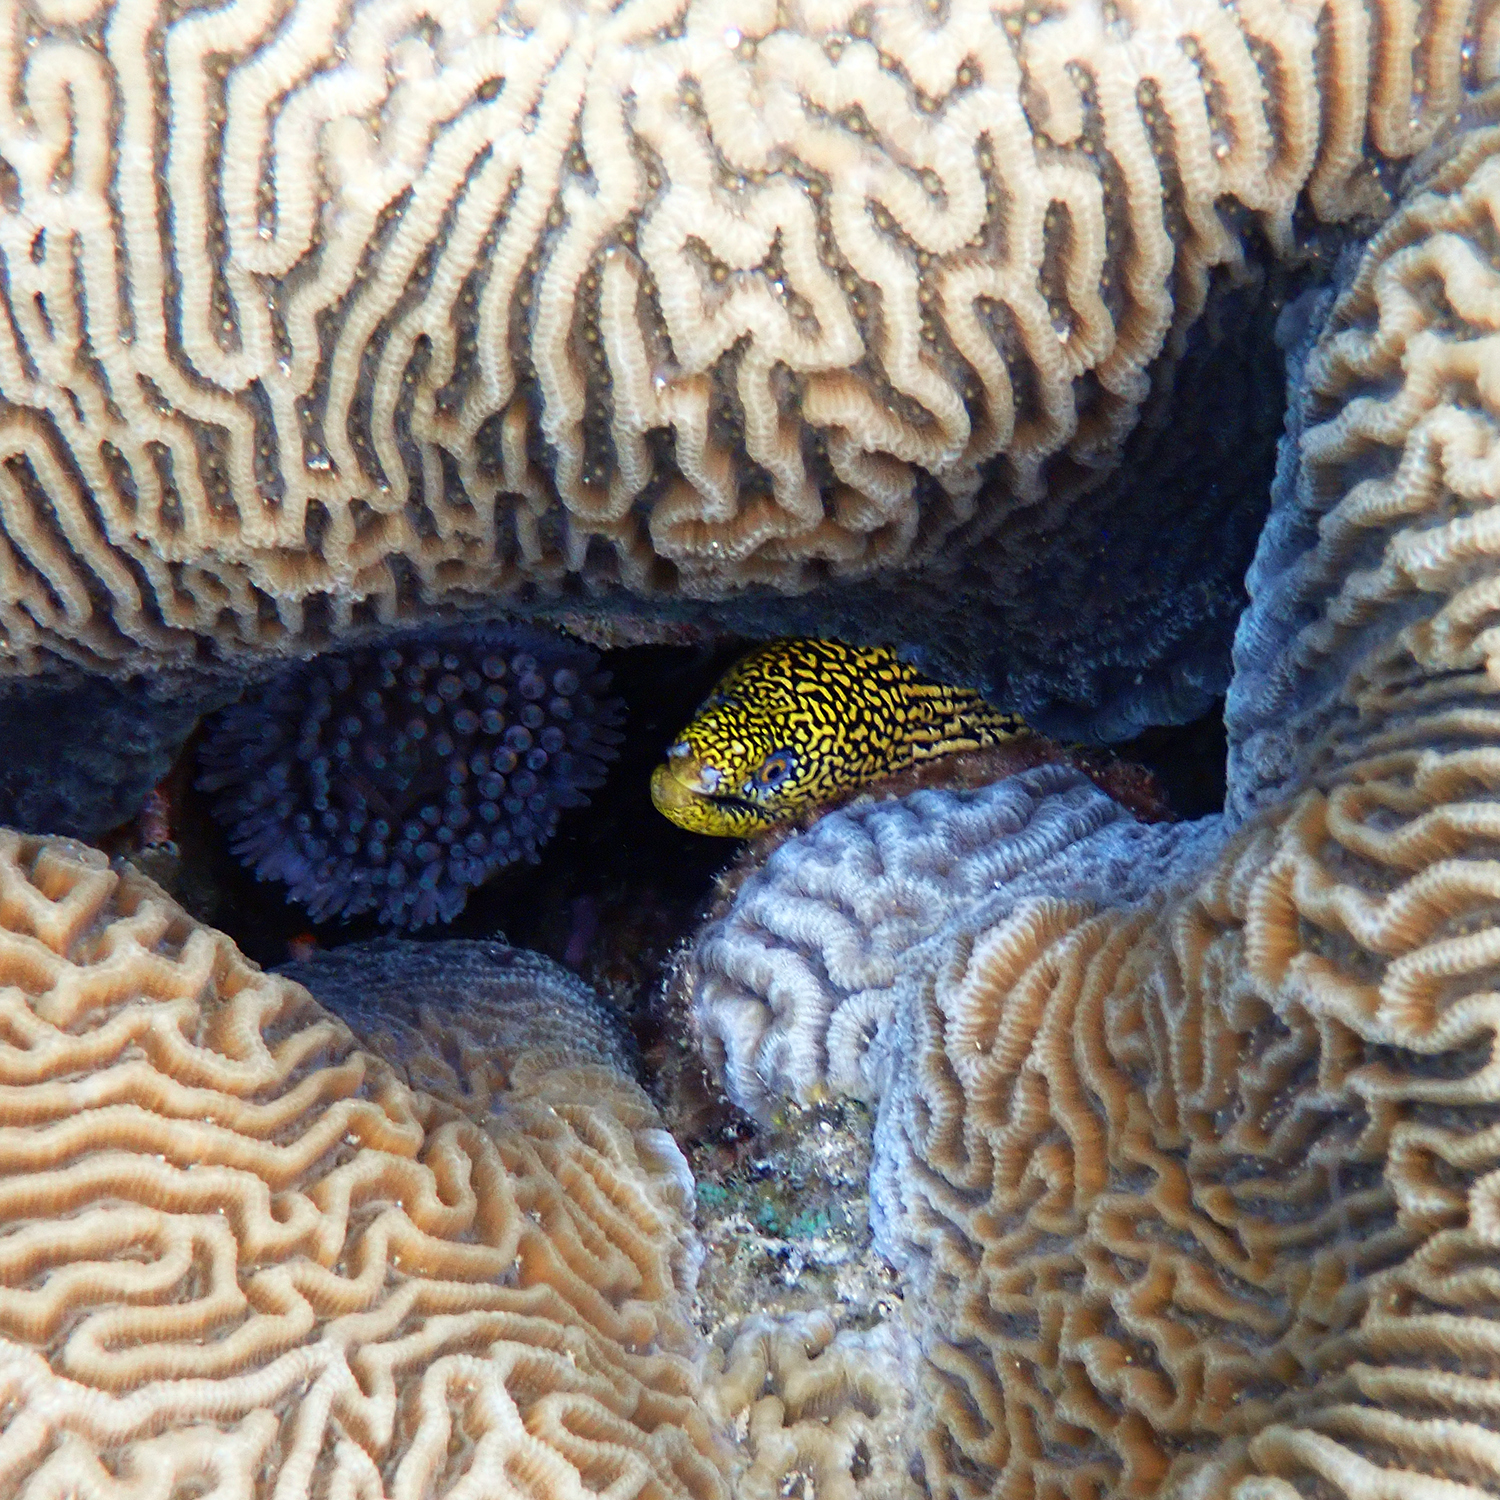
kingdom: Animalia
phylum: Chordata
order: Anguilliformes
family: Muraenidae
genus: Gymnothorax
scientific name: Gymnothorax eurostus
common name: Stout moray
